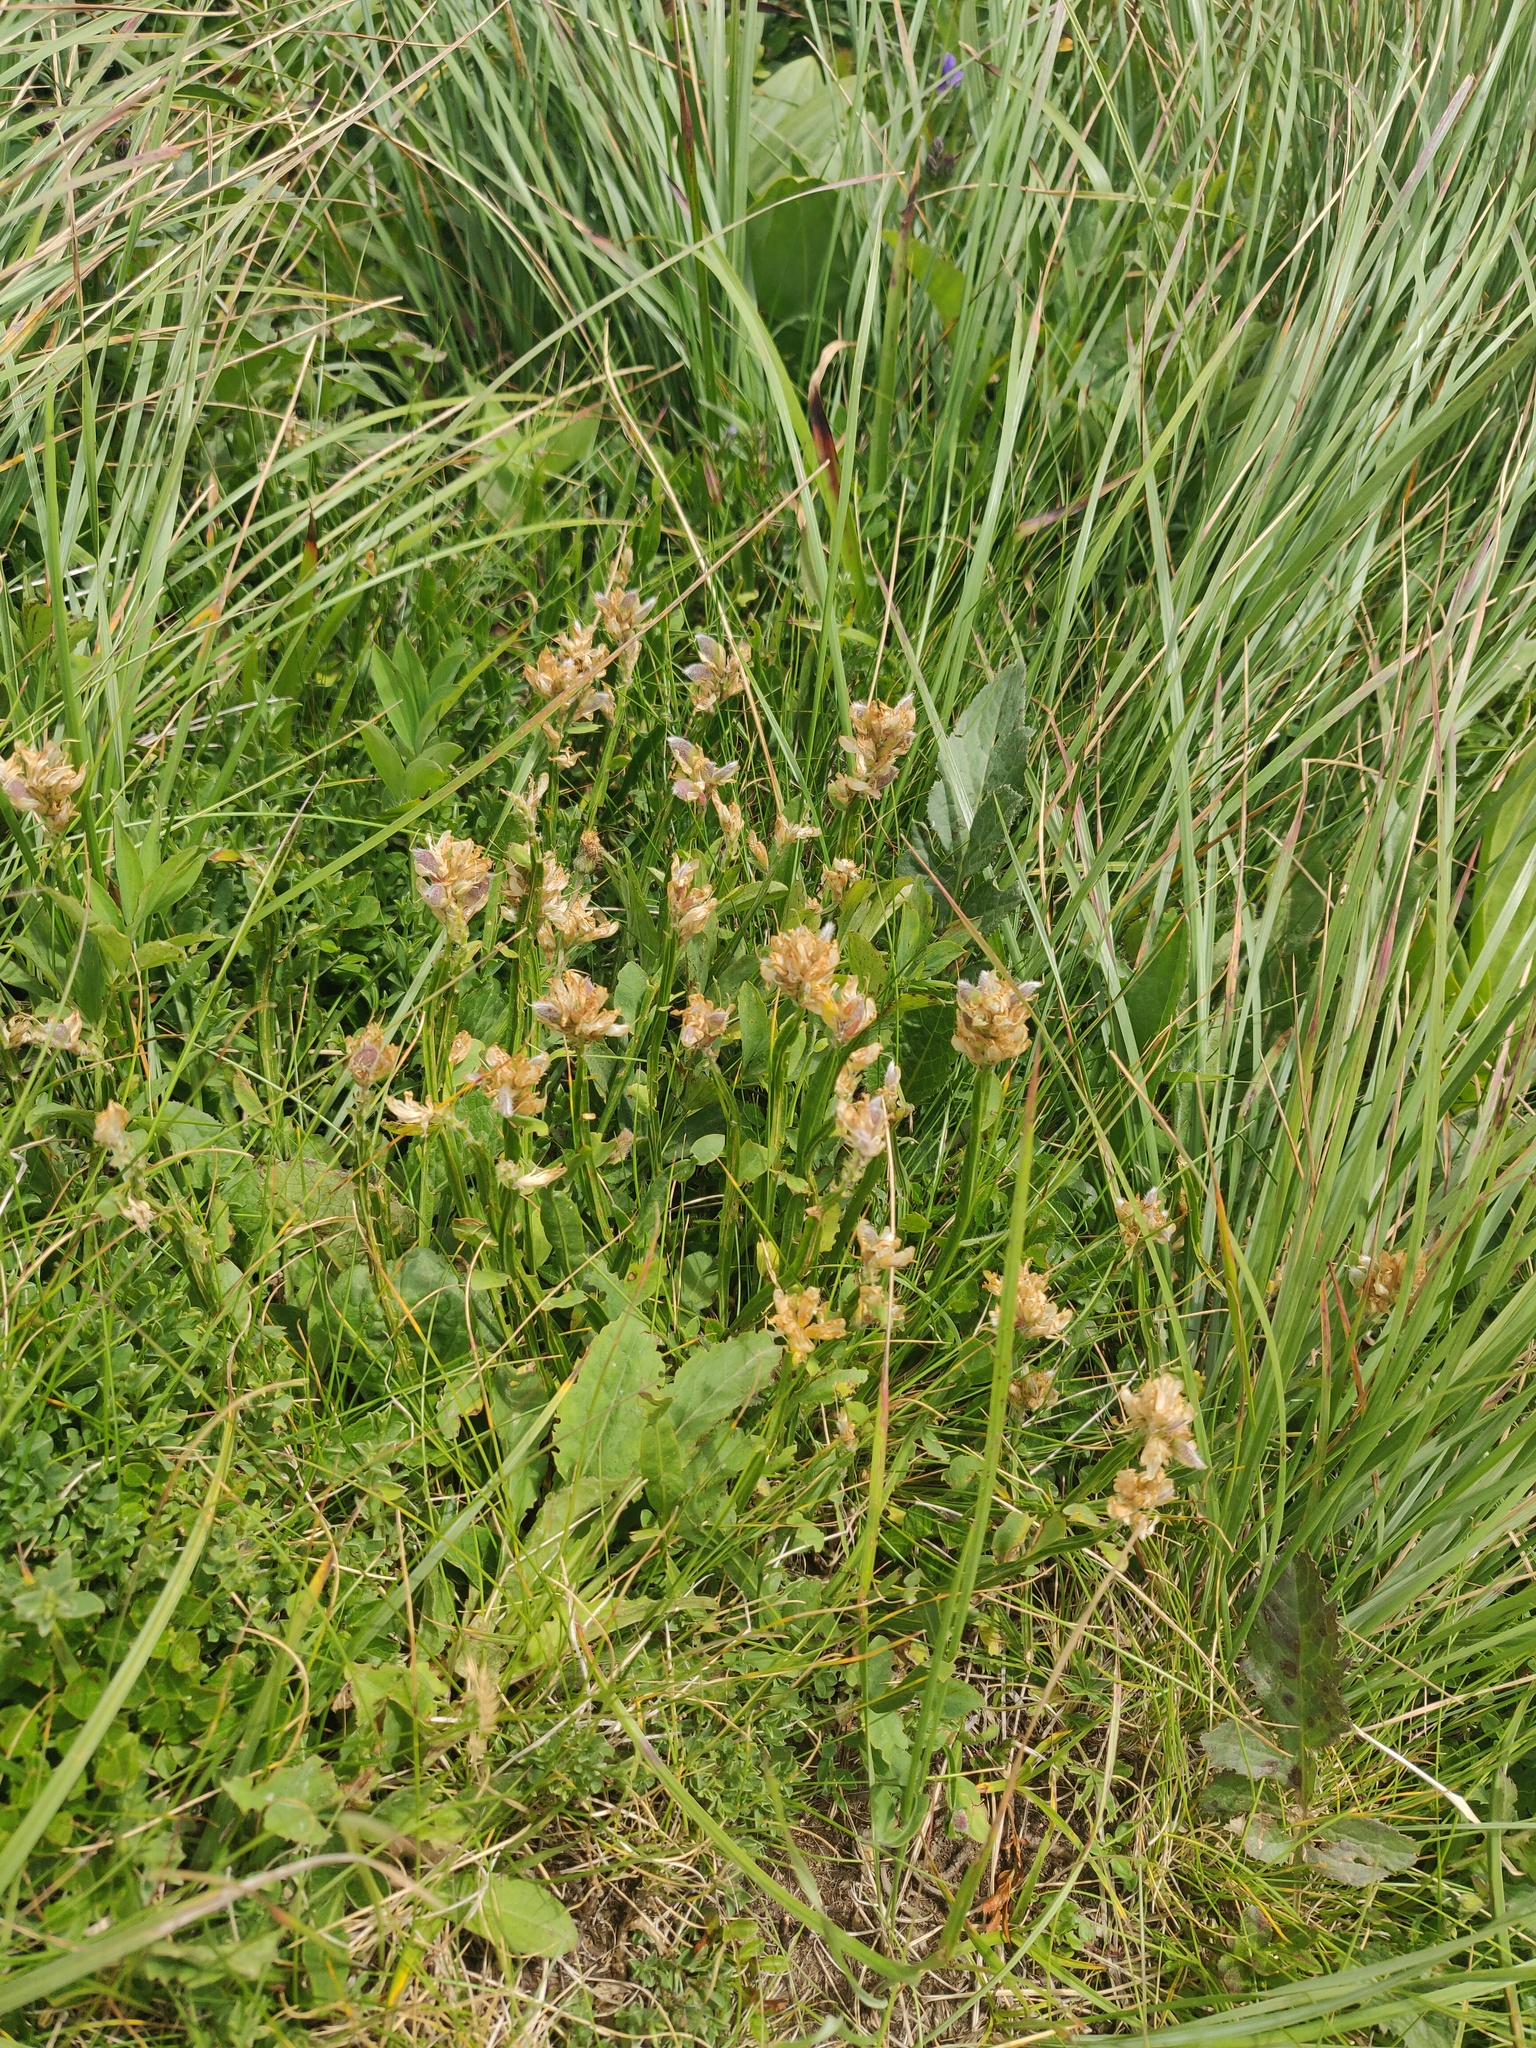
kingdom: Plantae
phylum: Tracheophyta
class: Magnoliopsida
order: Fabales
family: Fabaceae
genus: Genista
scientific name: Genista sagittalis
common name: Winged greenweed
